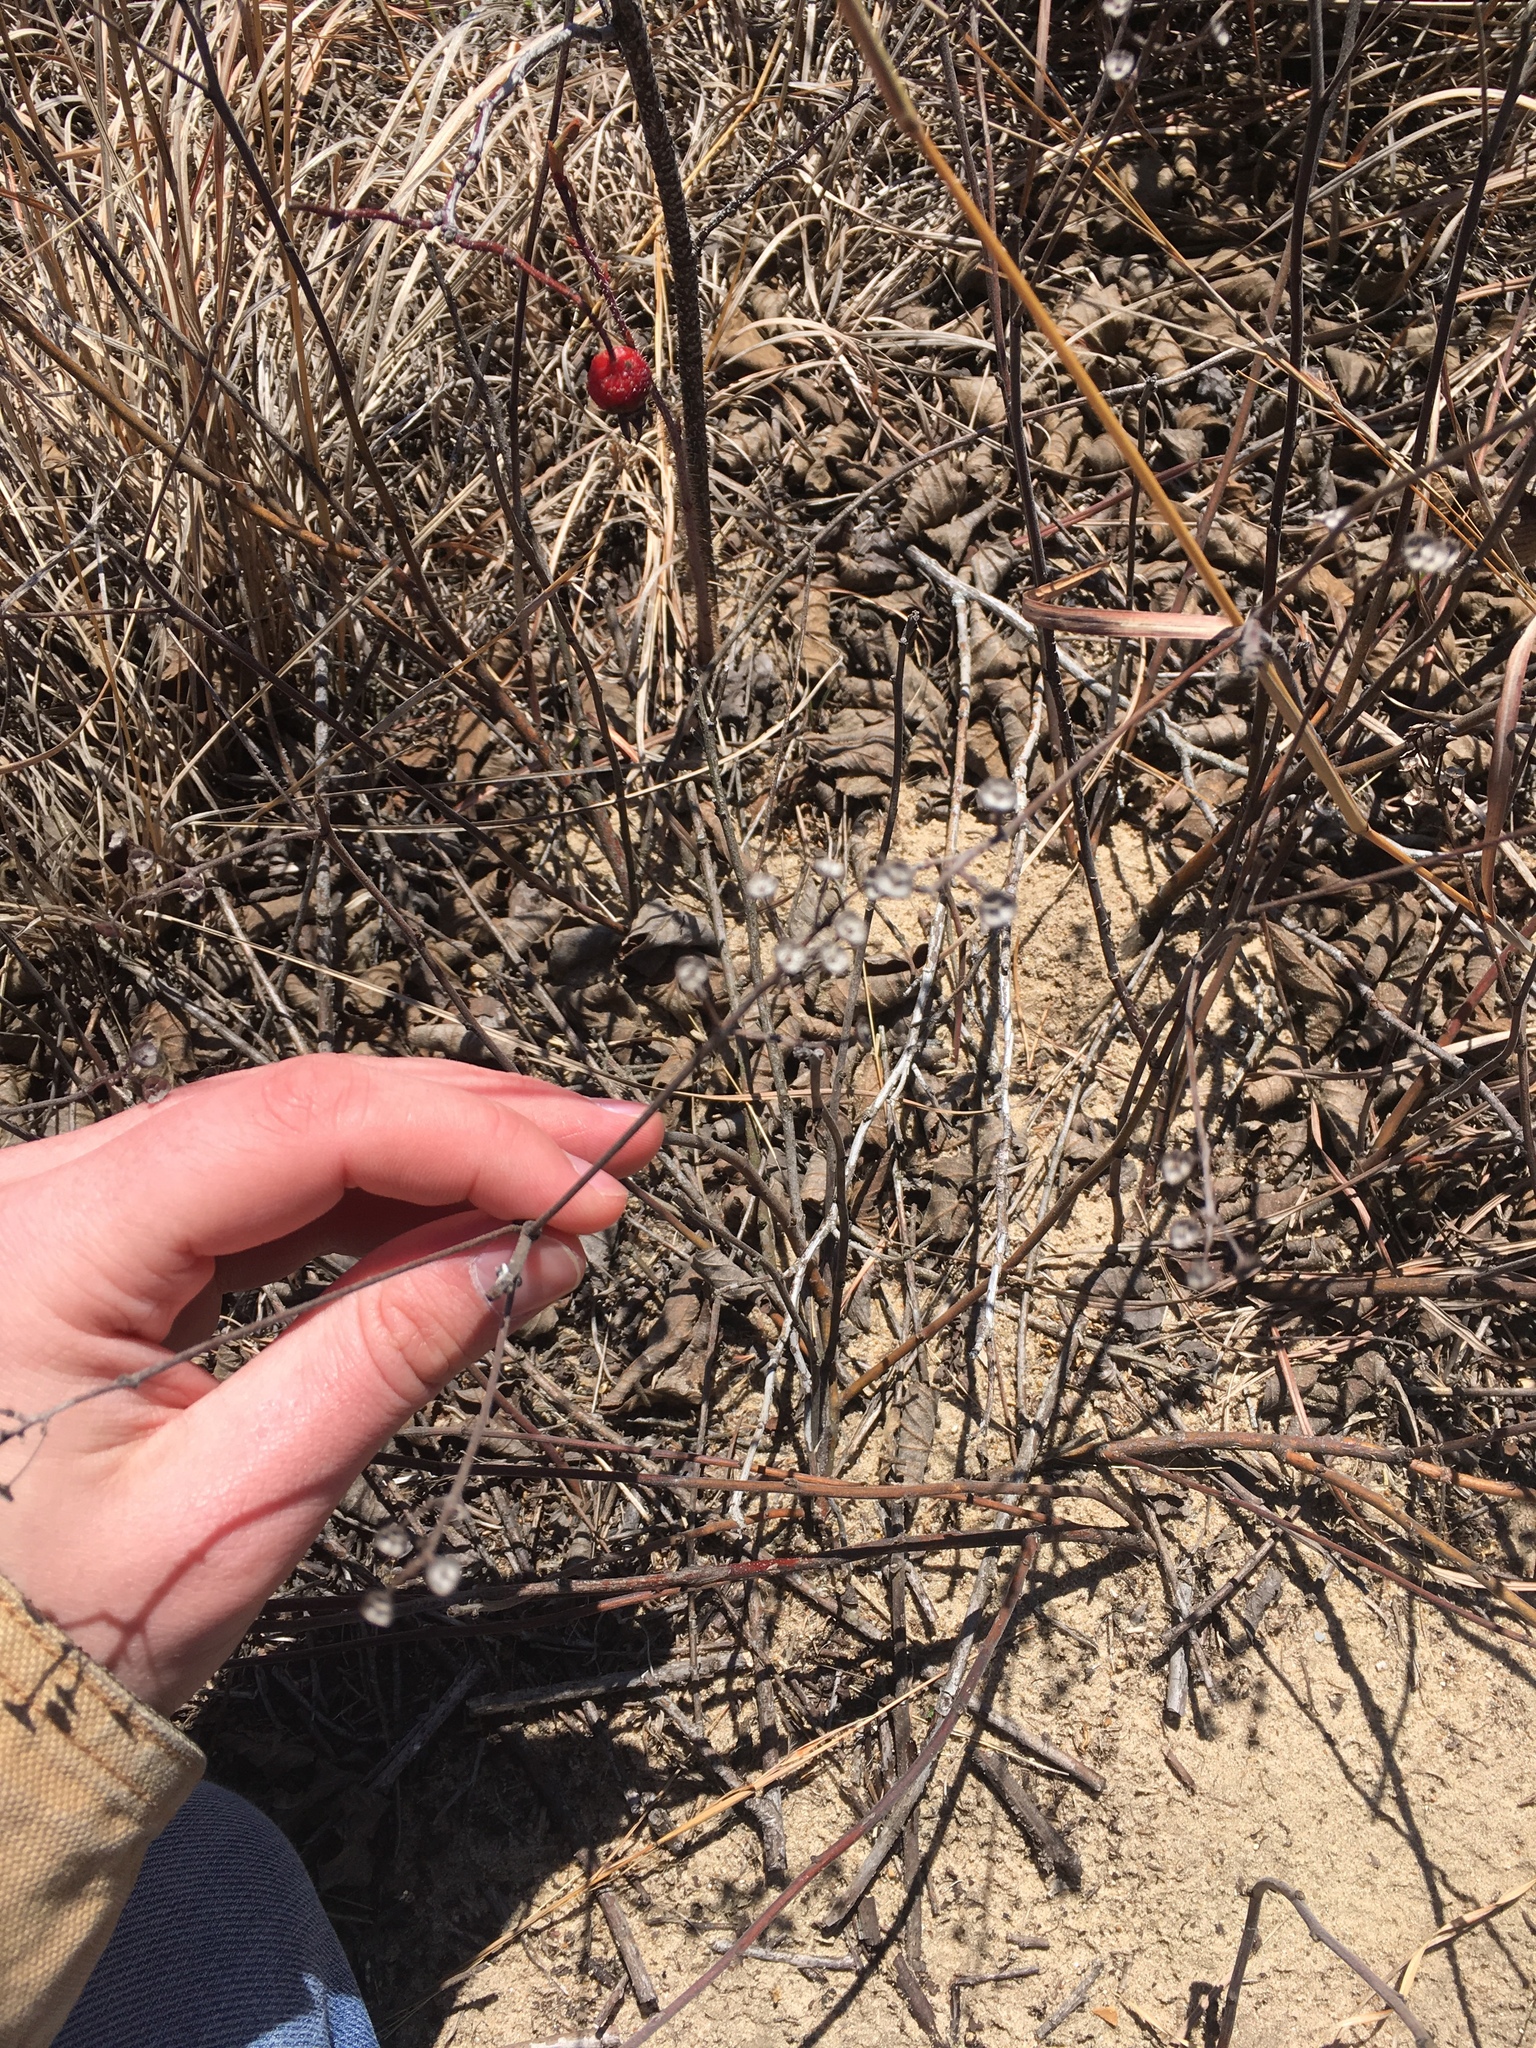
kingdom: Plantae
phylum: Tracheophyta
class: Magnoliopsida
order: Rosales
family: Rhamnaceae
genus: Ceanothus
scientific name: Ceanothus americanus
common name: Redroot
